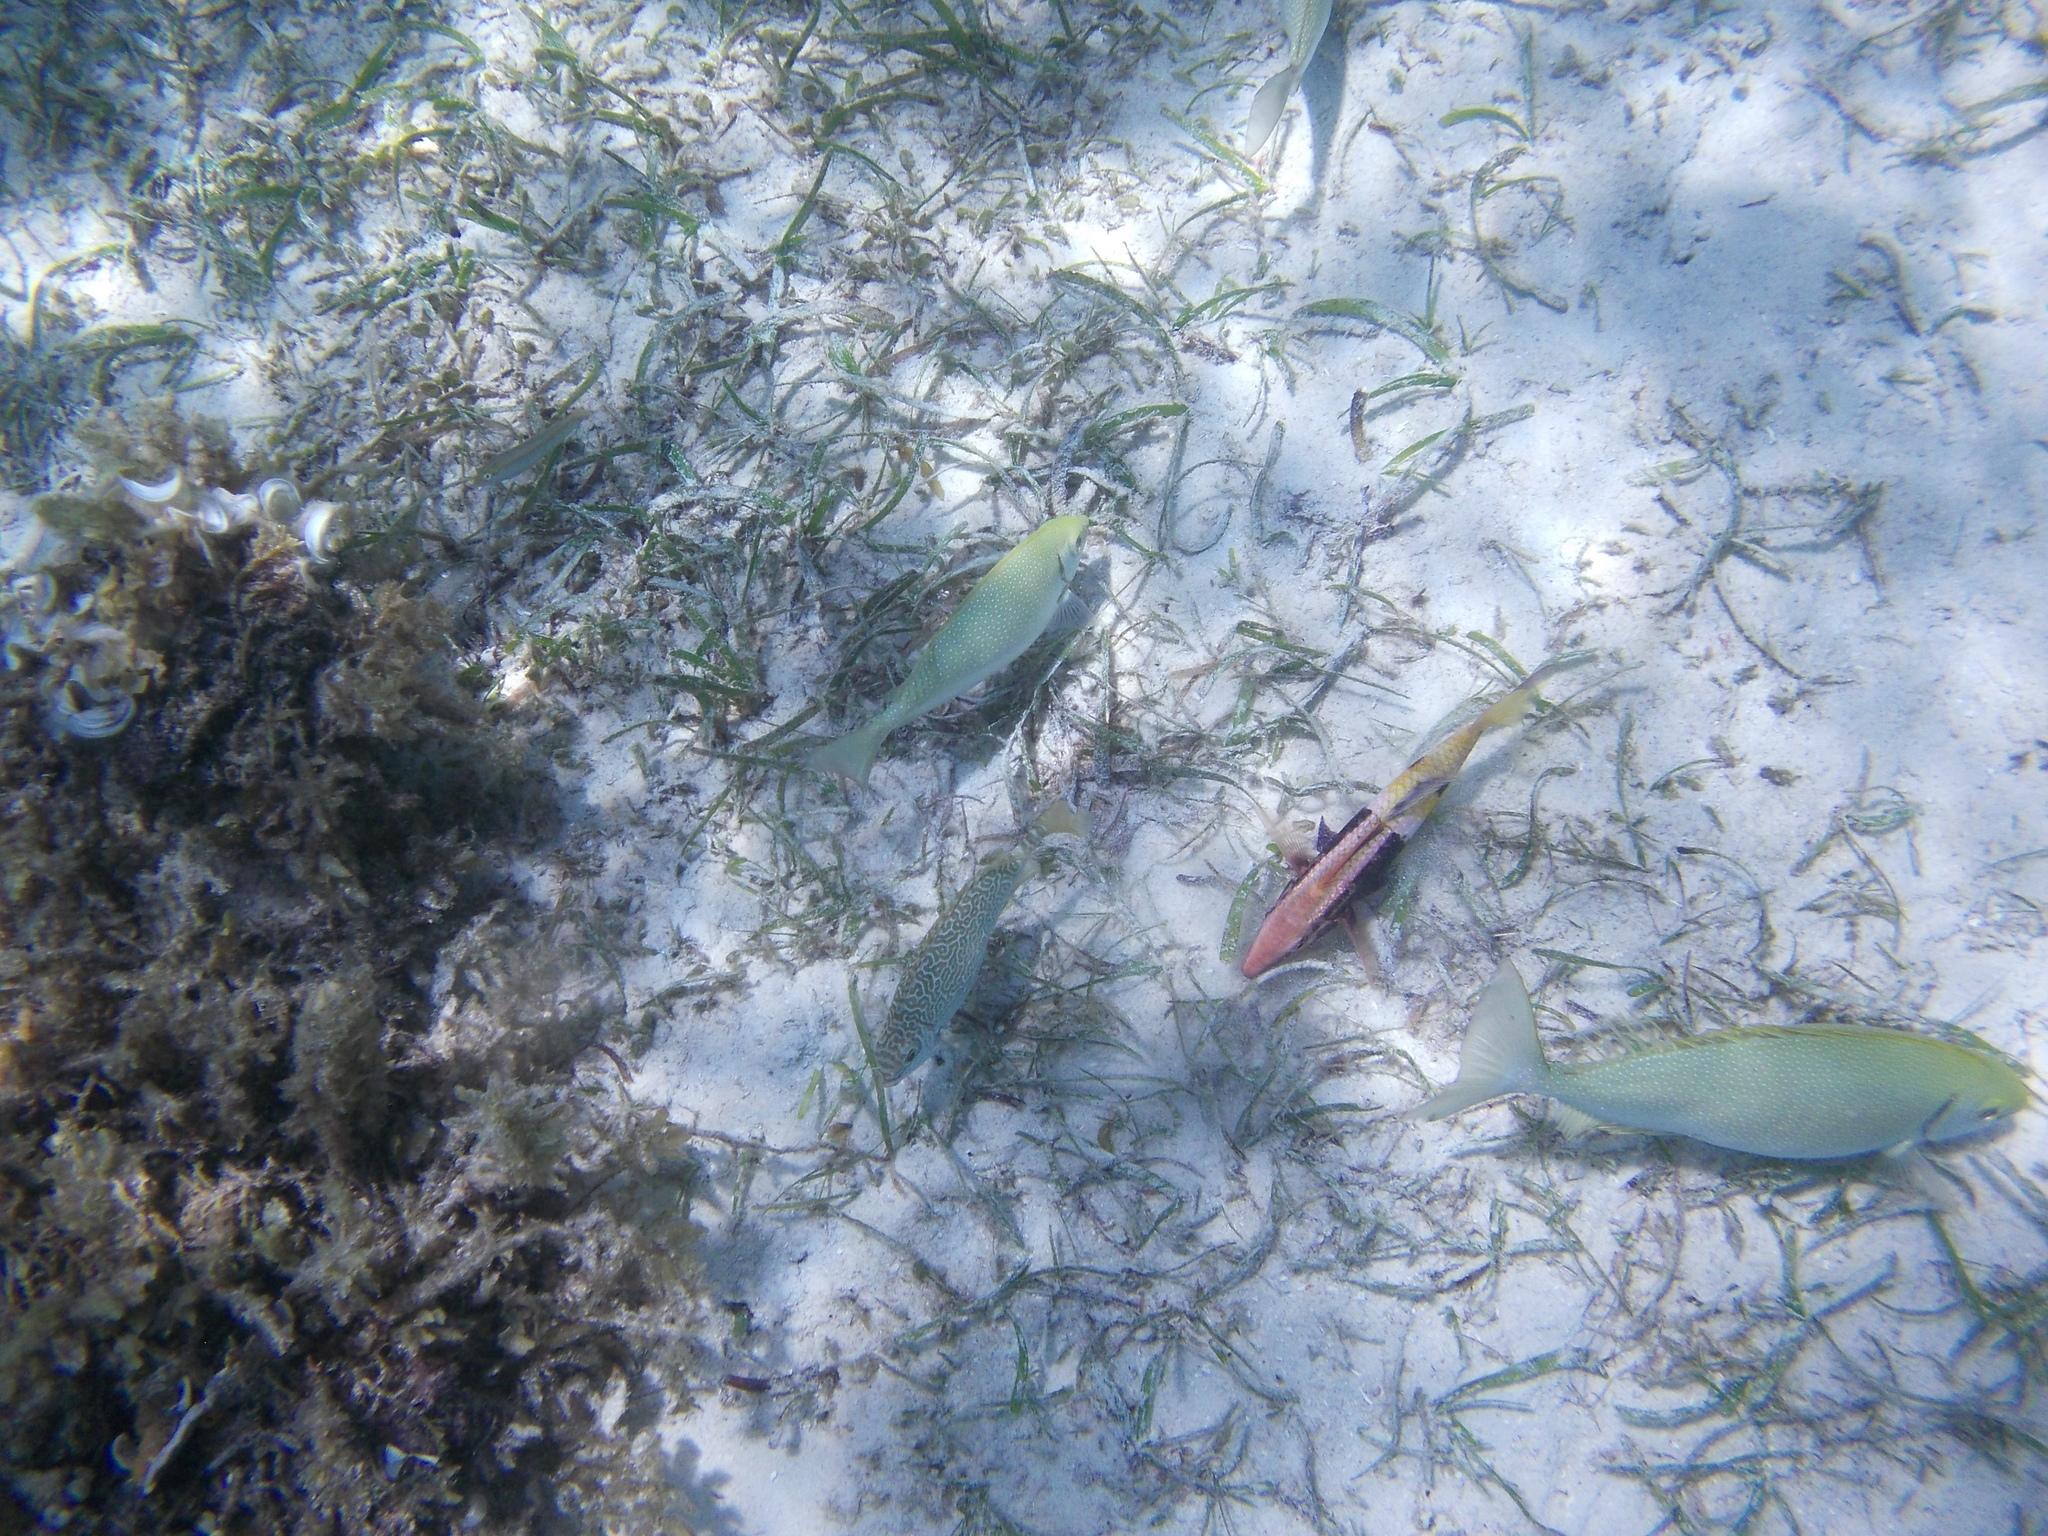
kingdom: Animalia
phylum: Chordata
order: Perciformes
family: Siganidae
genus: Siganus
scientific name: Siganus fuscescens
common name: Dusky rabbitfish
